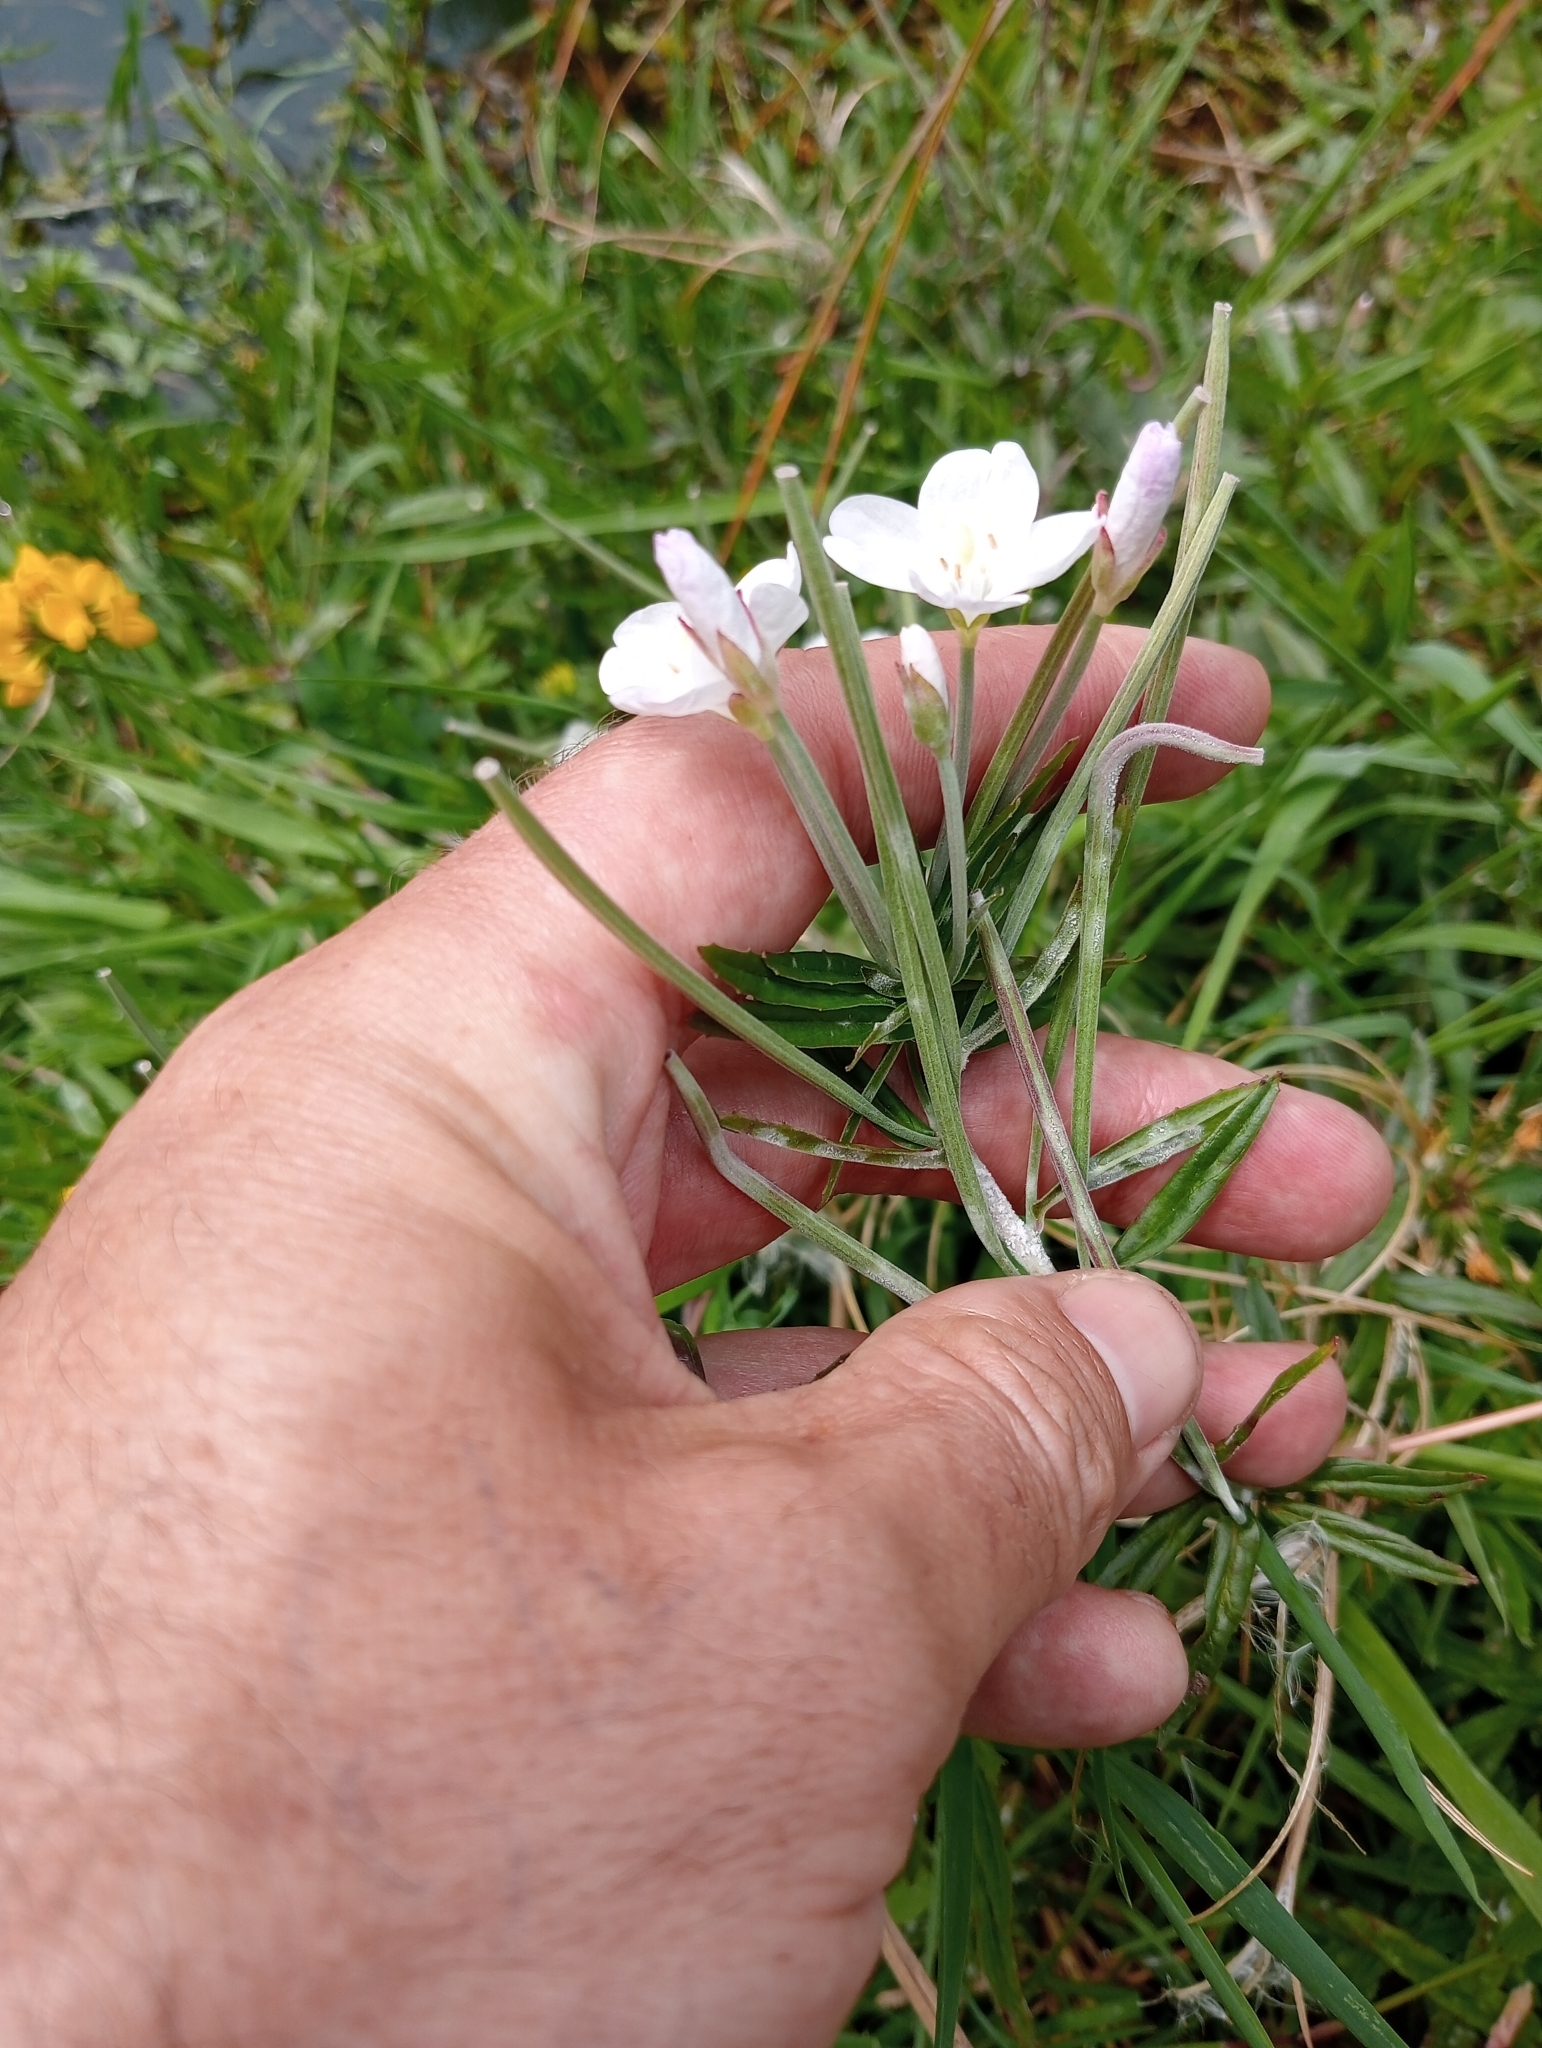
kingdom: Plantae
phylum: Tracheophyta
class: Magnoliopsida
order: Myrtales
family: Onagraceae
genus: Epilobium
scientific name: Epilobium pallidiflorum
